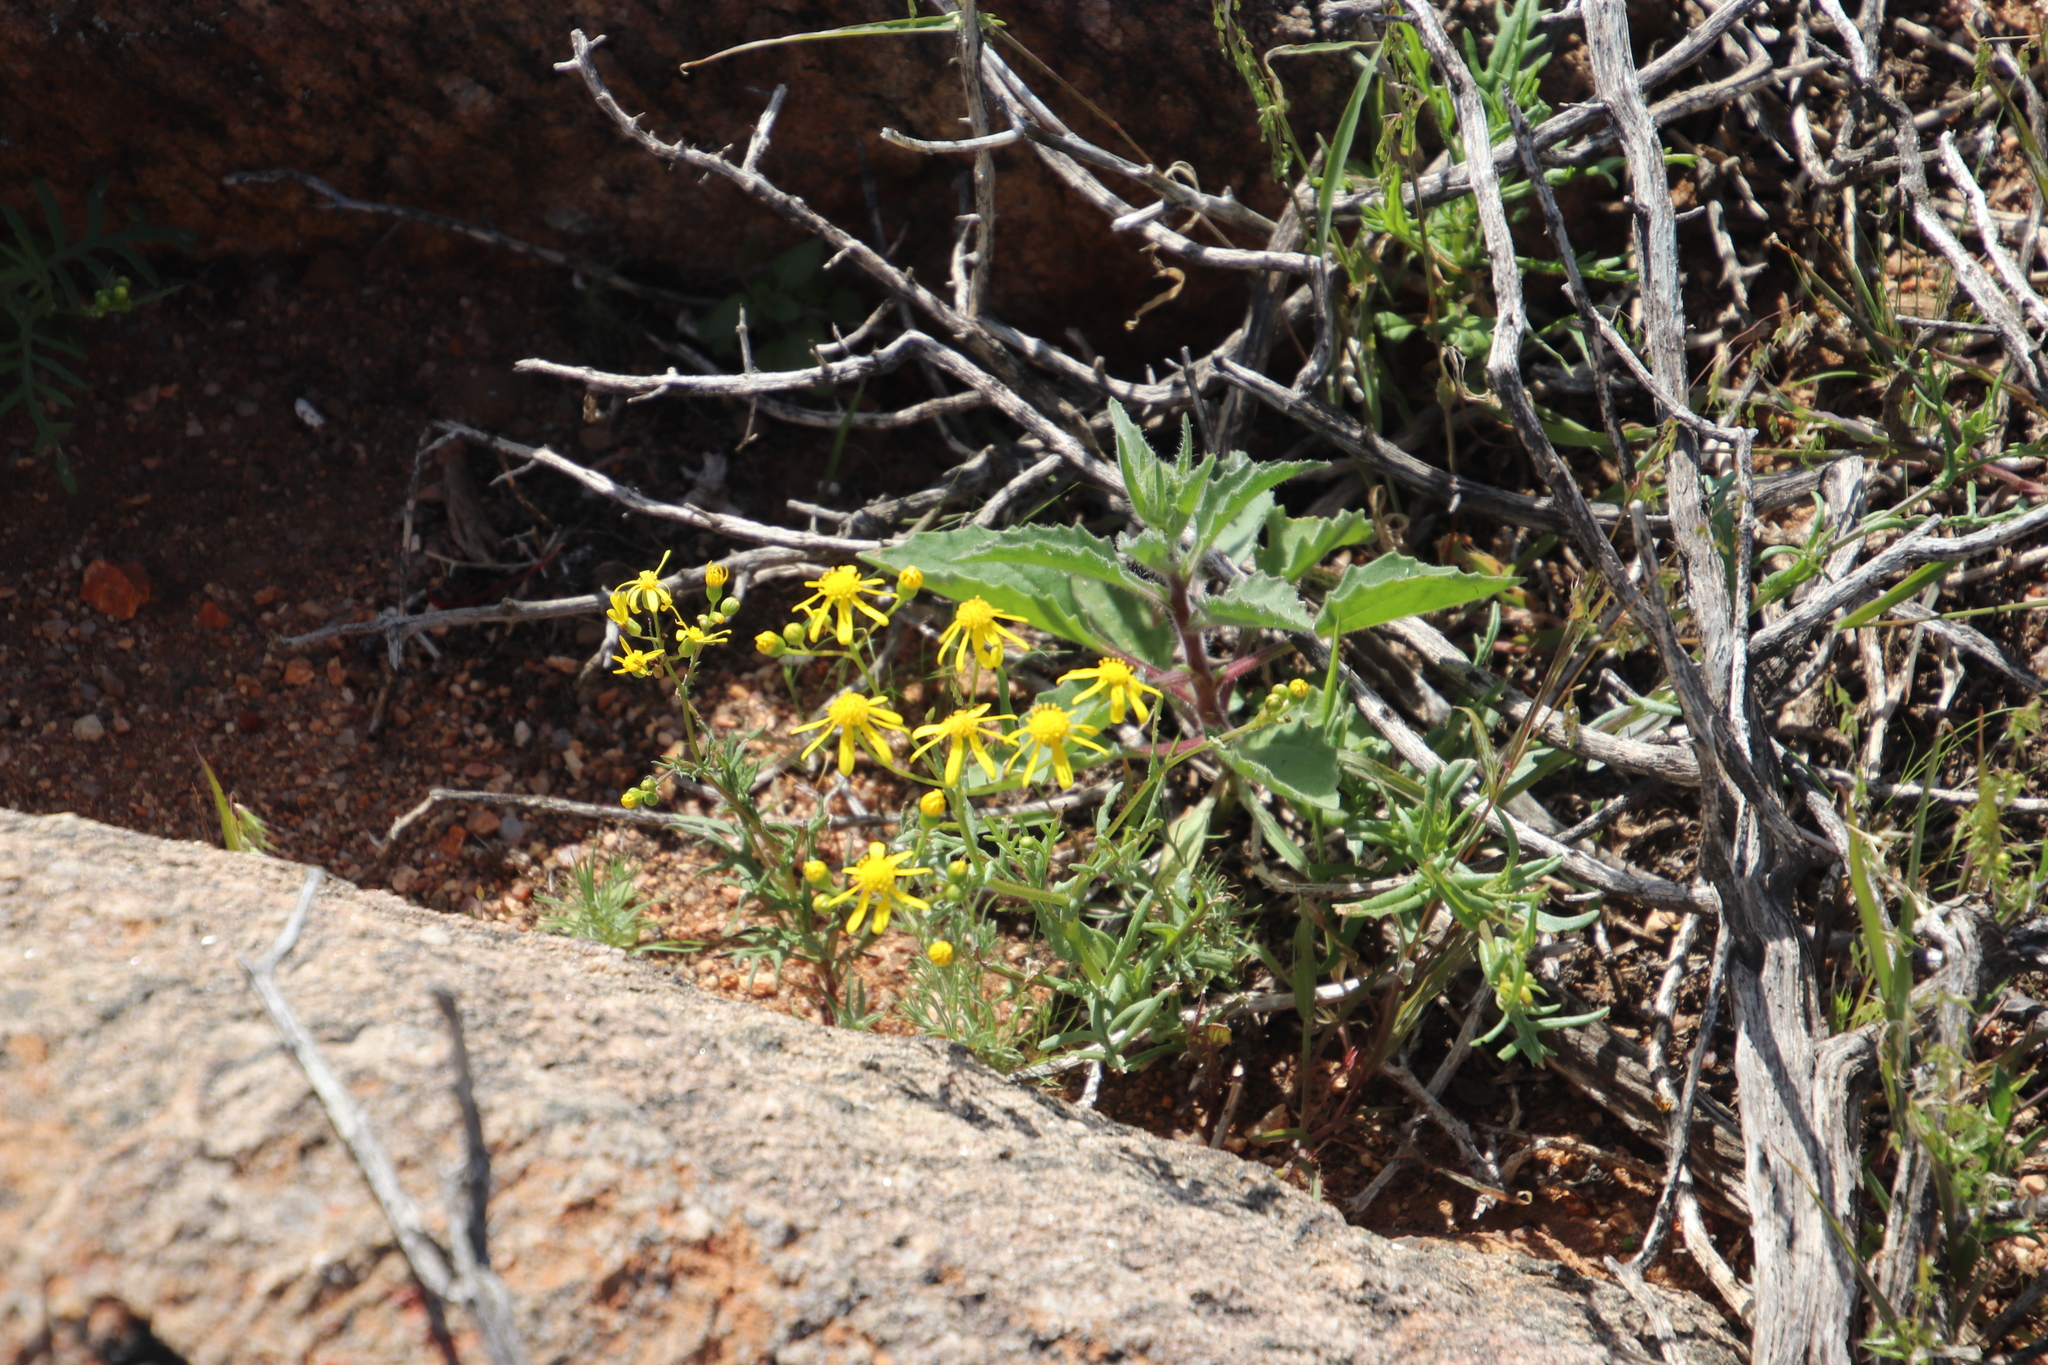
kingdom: Plantae
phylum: Tracheophyta
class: Magnoliopsida
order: Asterales
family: Asteraceae
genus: Senecio
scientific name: Senecio abruptus
